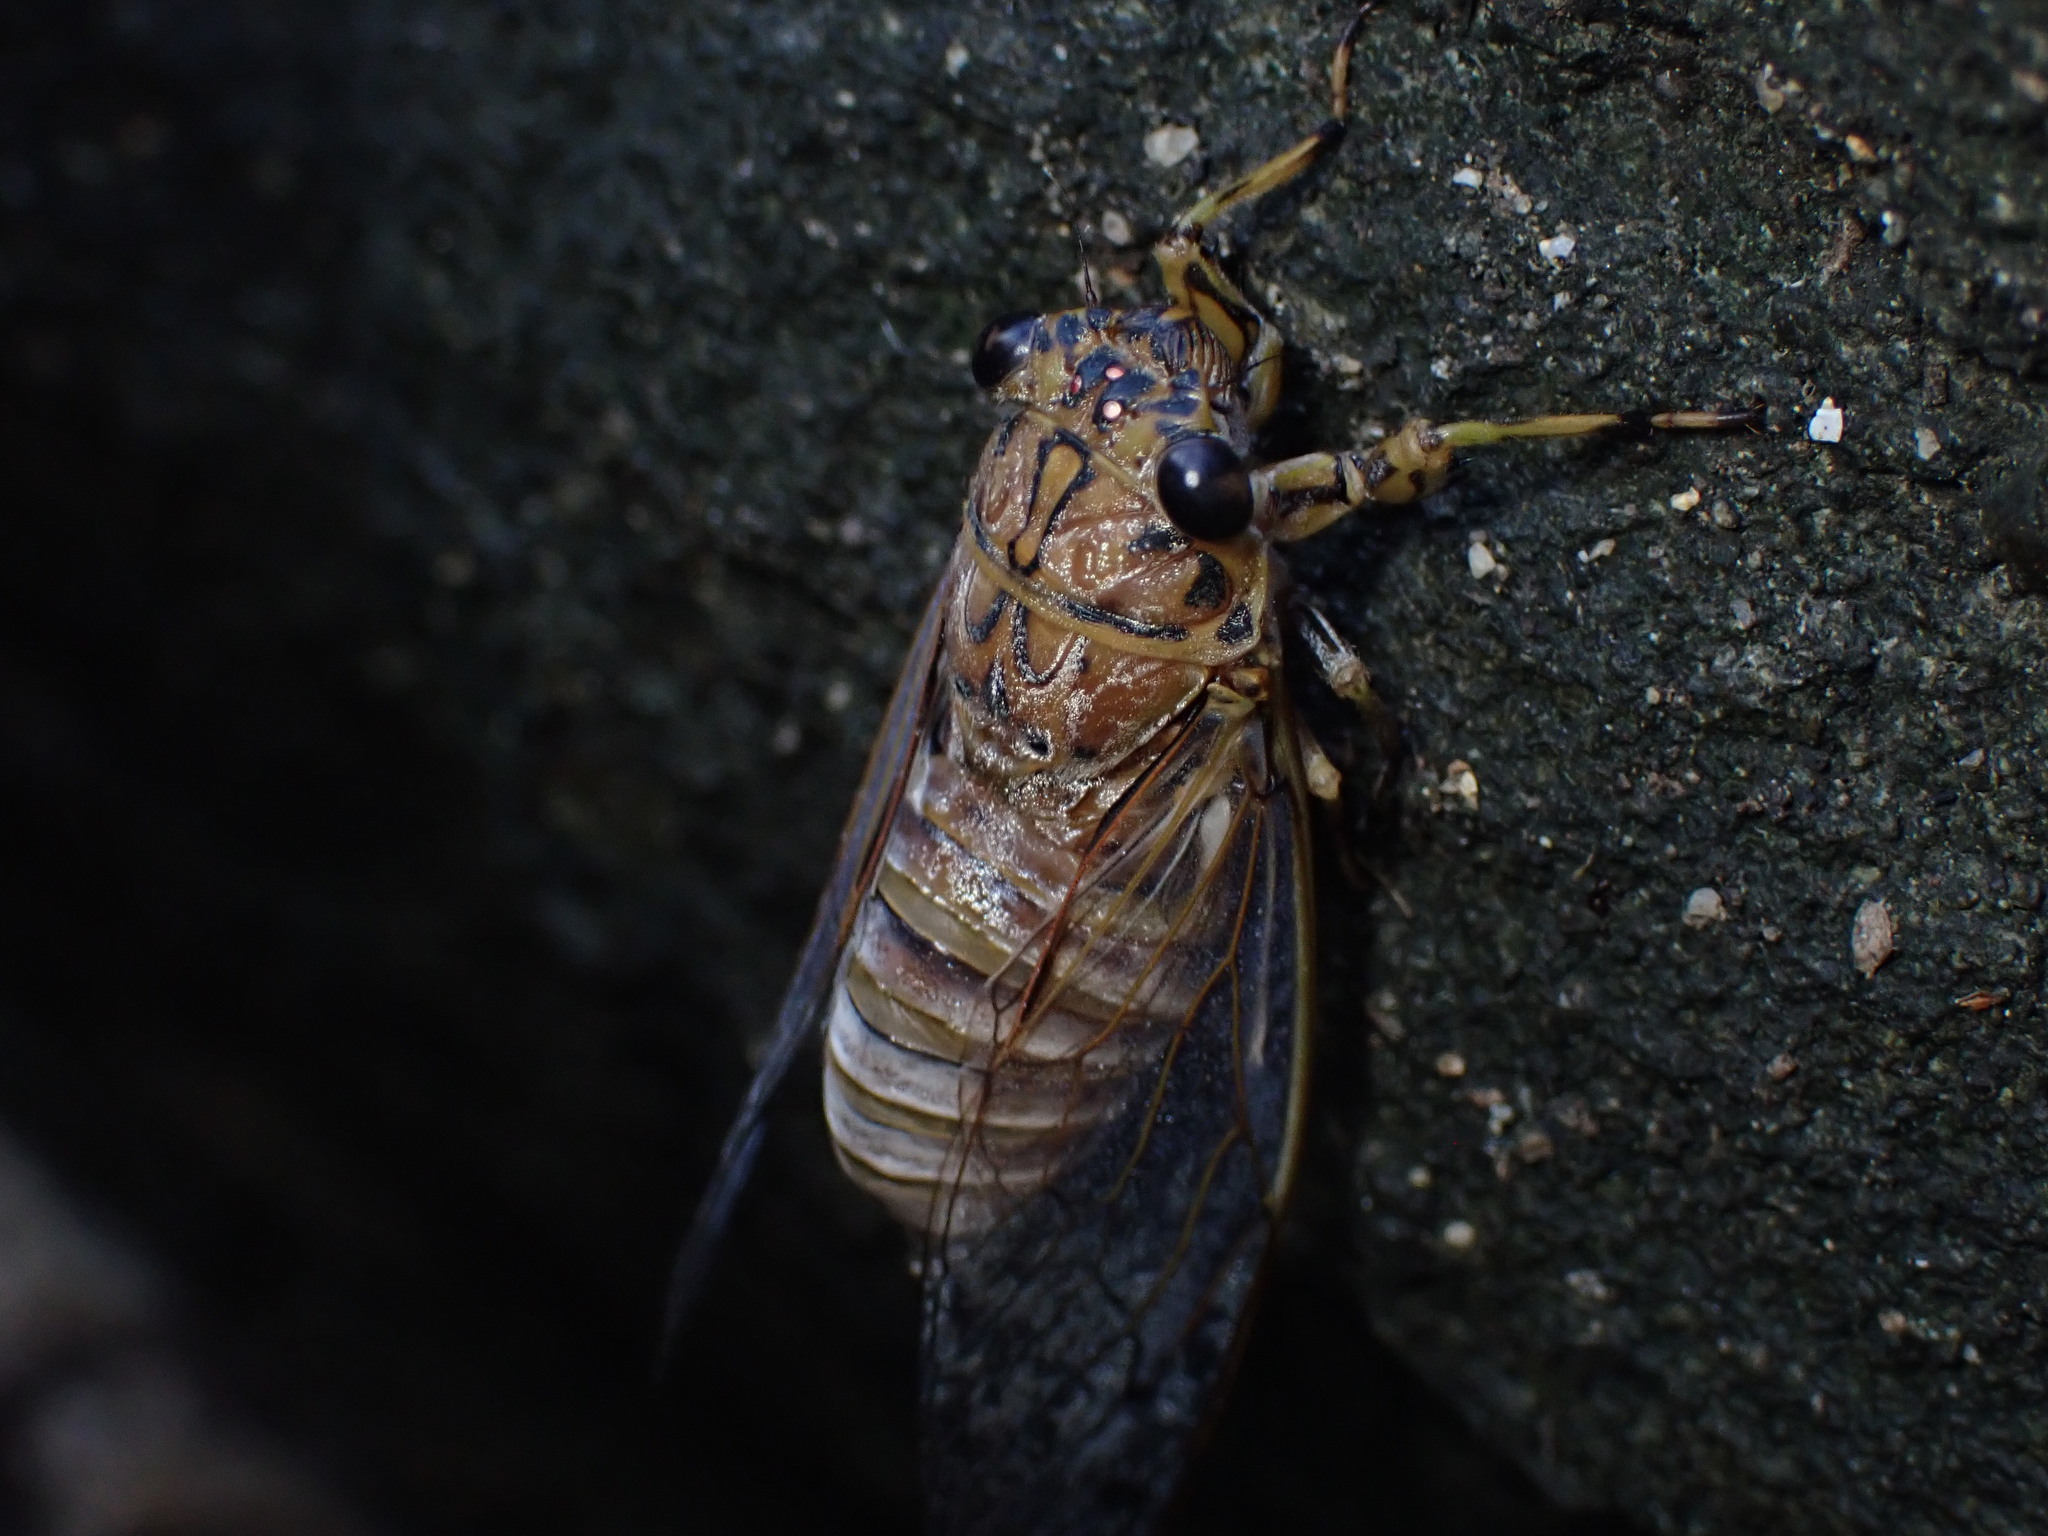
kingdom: Animalia
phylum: Arthropoda
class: Insecta
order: Hemiptera
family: Cicadidae
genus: Tamasa
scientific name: Tamasa tristigma
